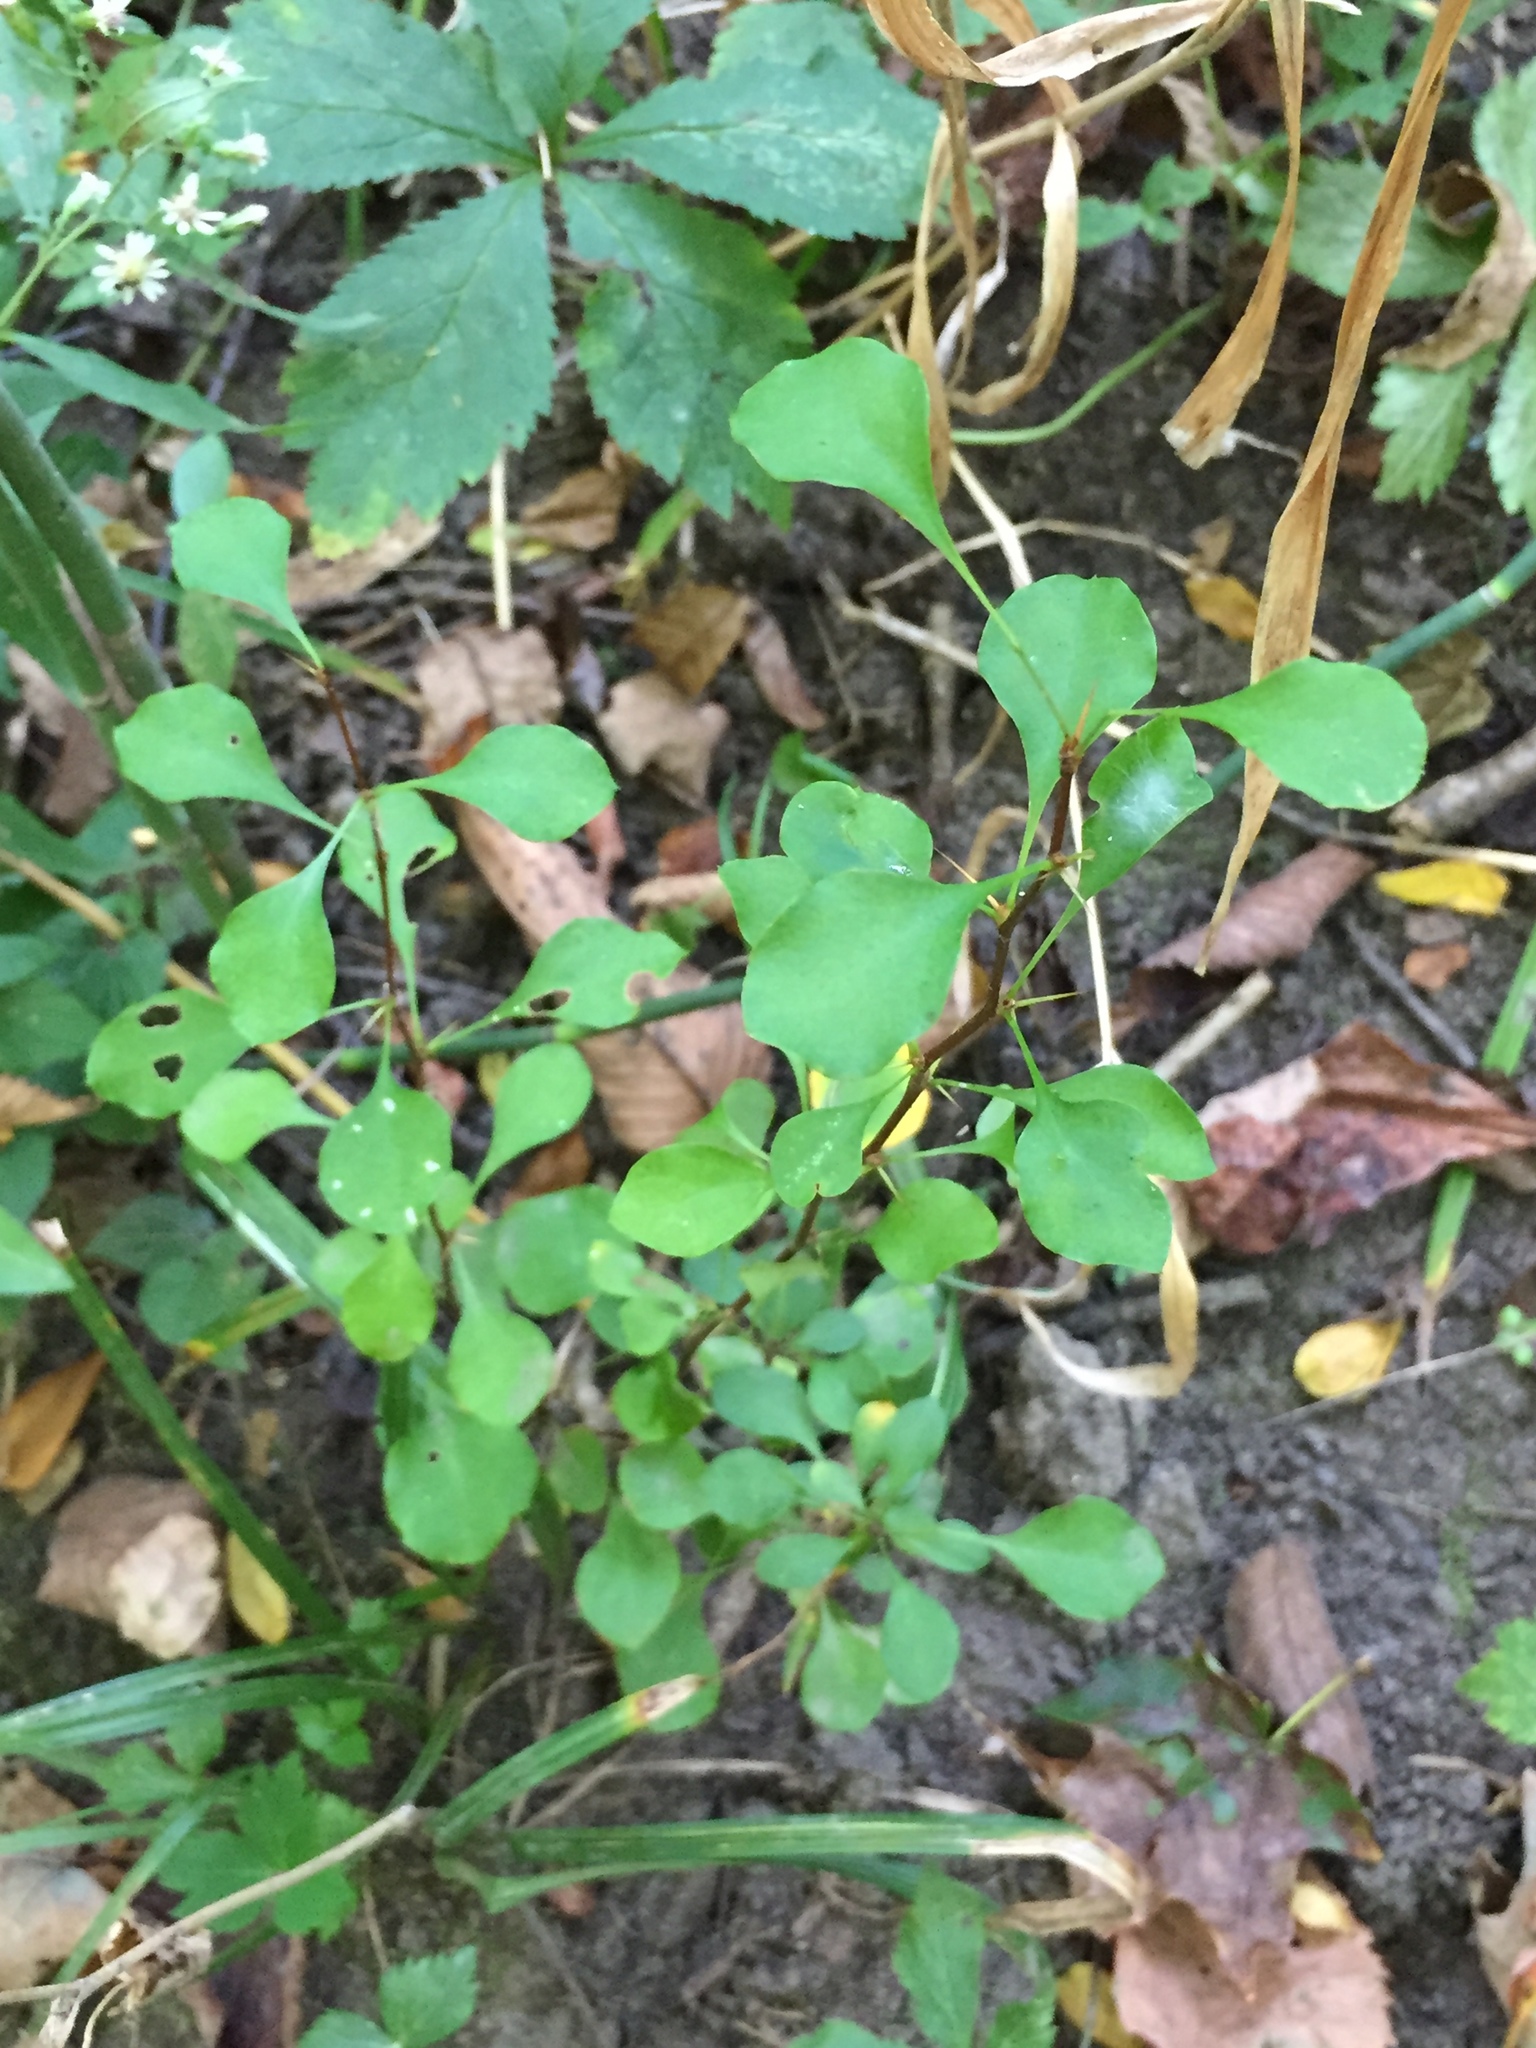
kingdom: Plantae
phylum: Tracheophyta
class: Magnoliopsida
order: Ranunculales
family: Berberidaceae
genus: Berberis
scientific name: Berberis thunbergii
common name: Japanese barberry
